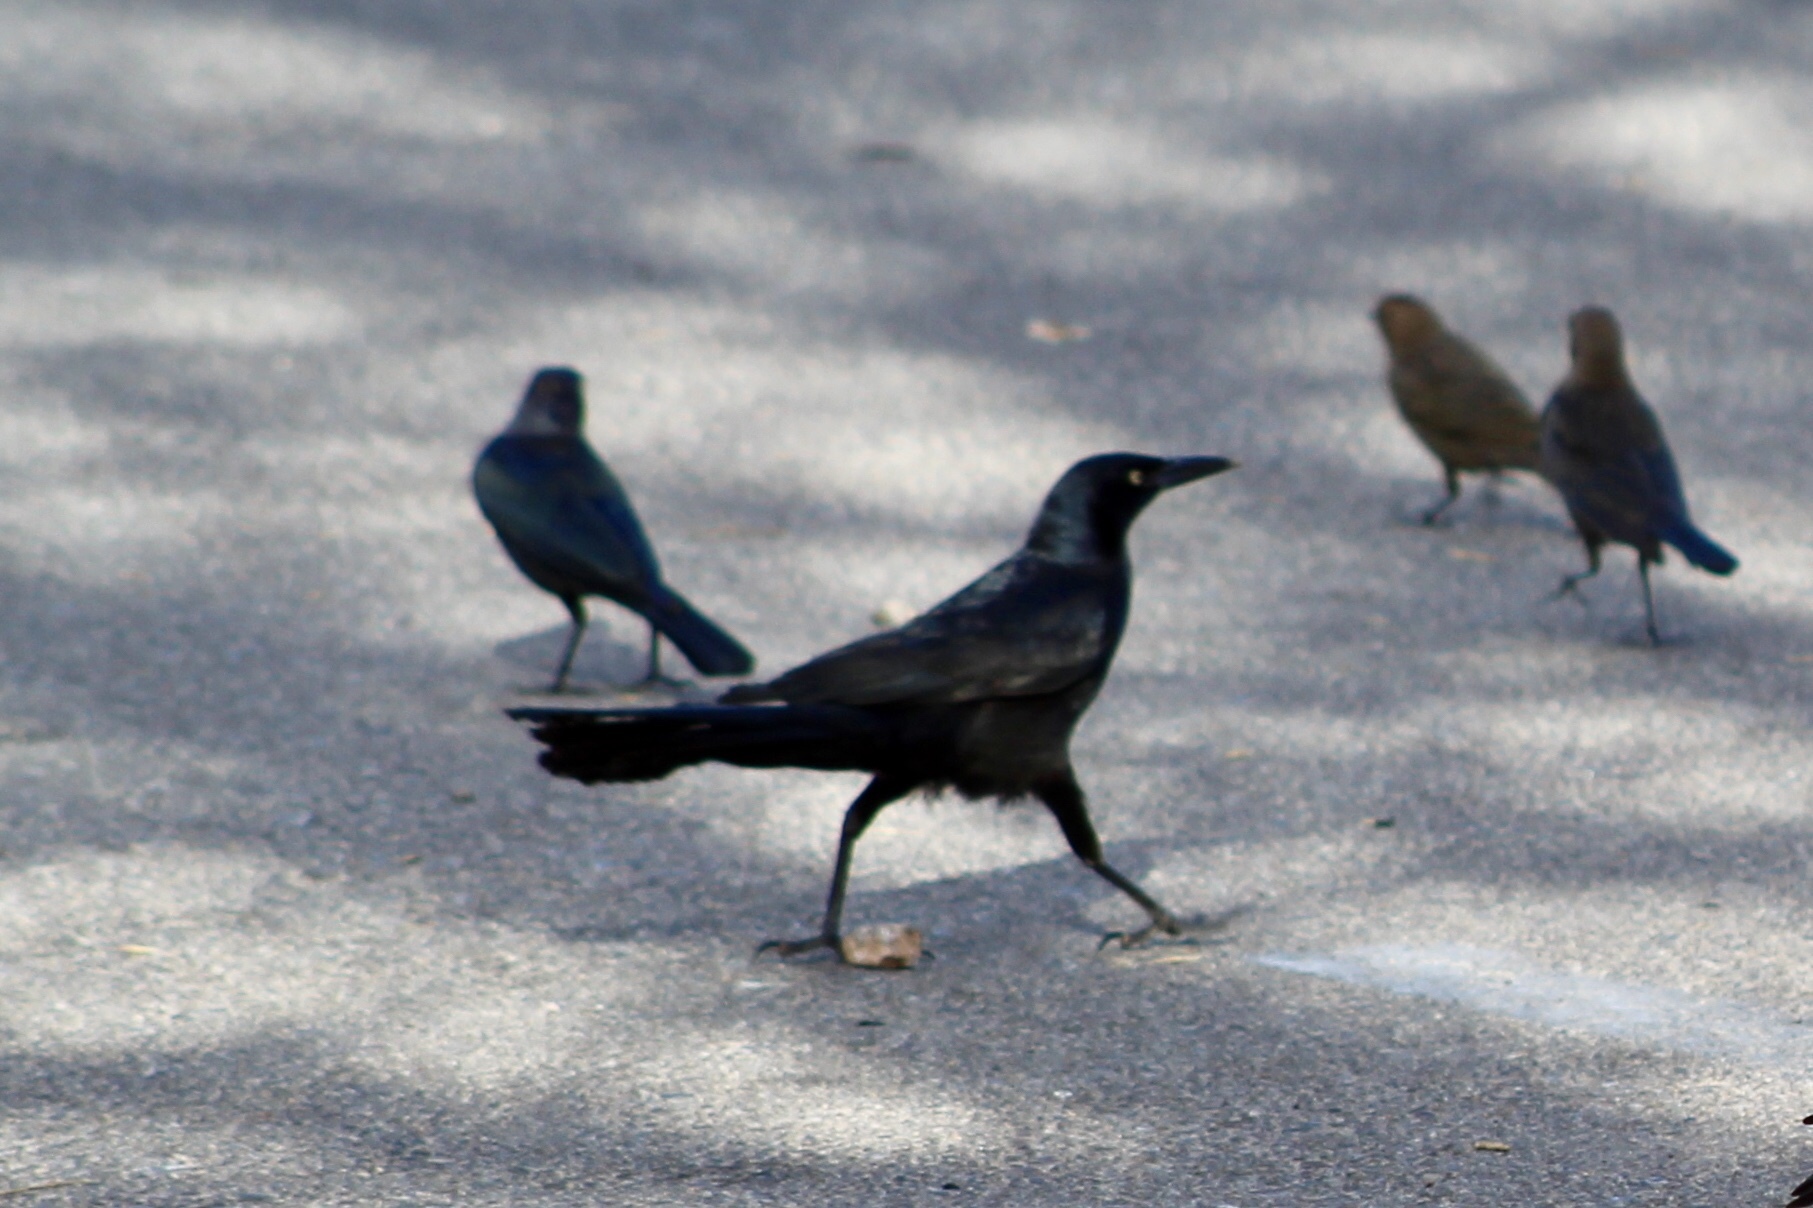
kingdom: Animalia
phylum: Chordata
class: Aves
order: Passeriformes
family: Icteridae
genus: Quiscalus
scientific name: Quiscalus mexicanus
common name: Great-tailed grackle
